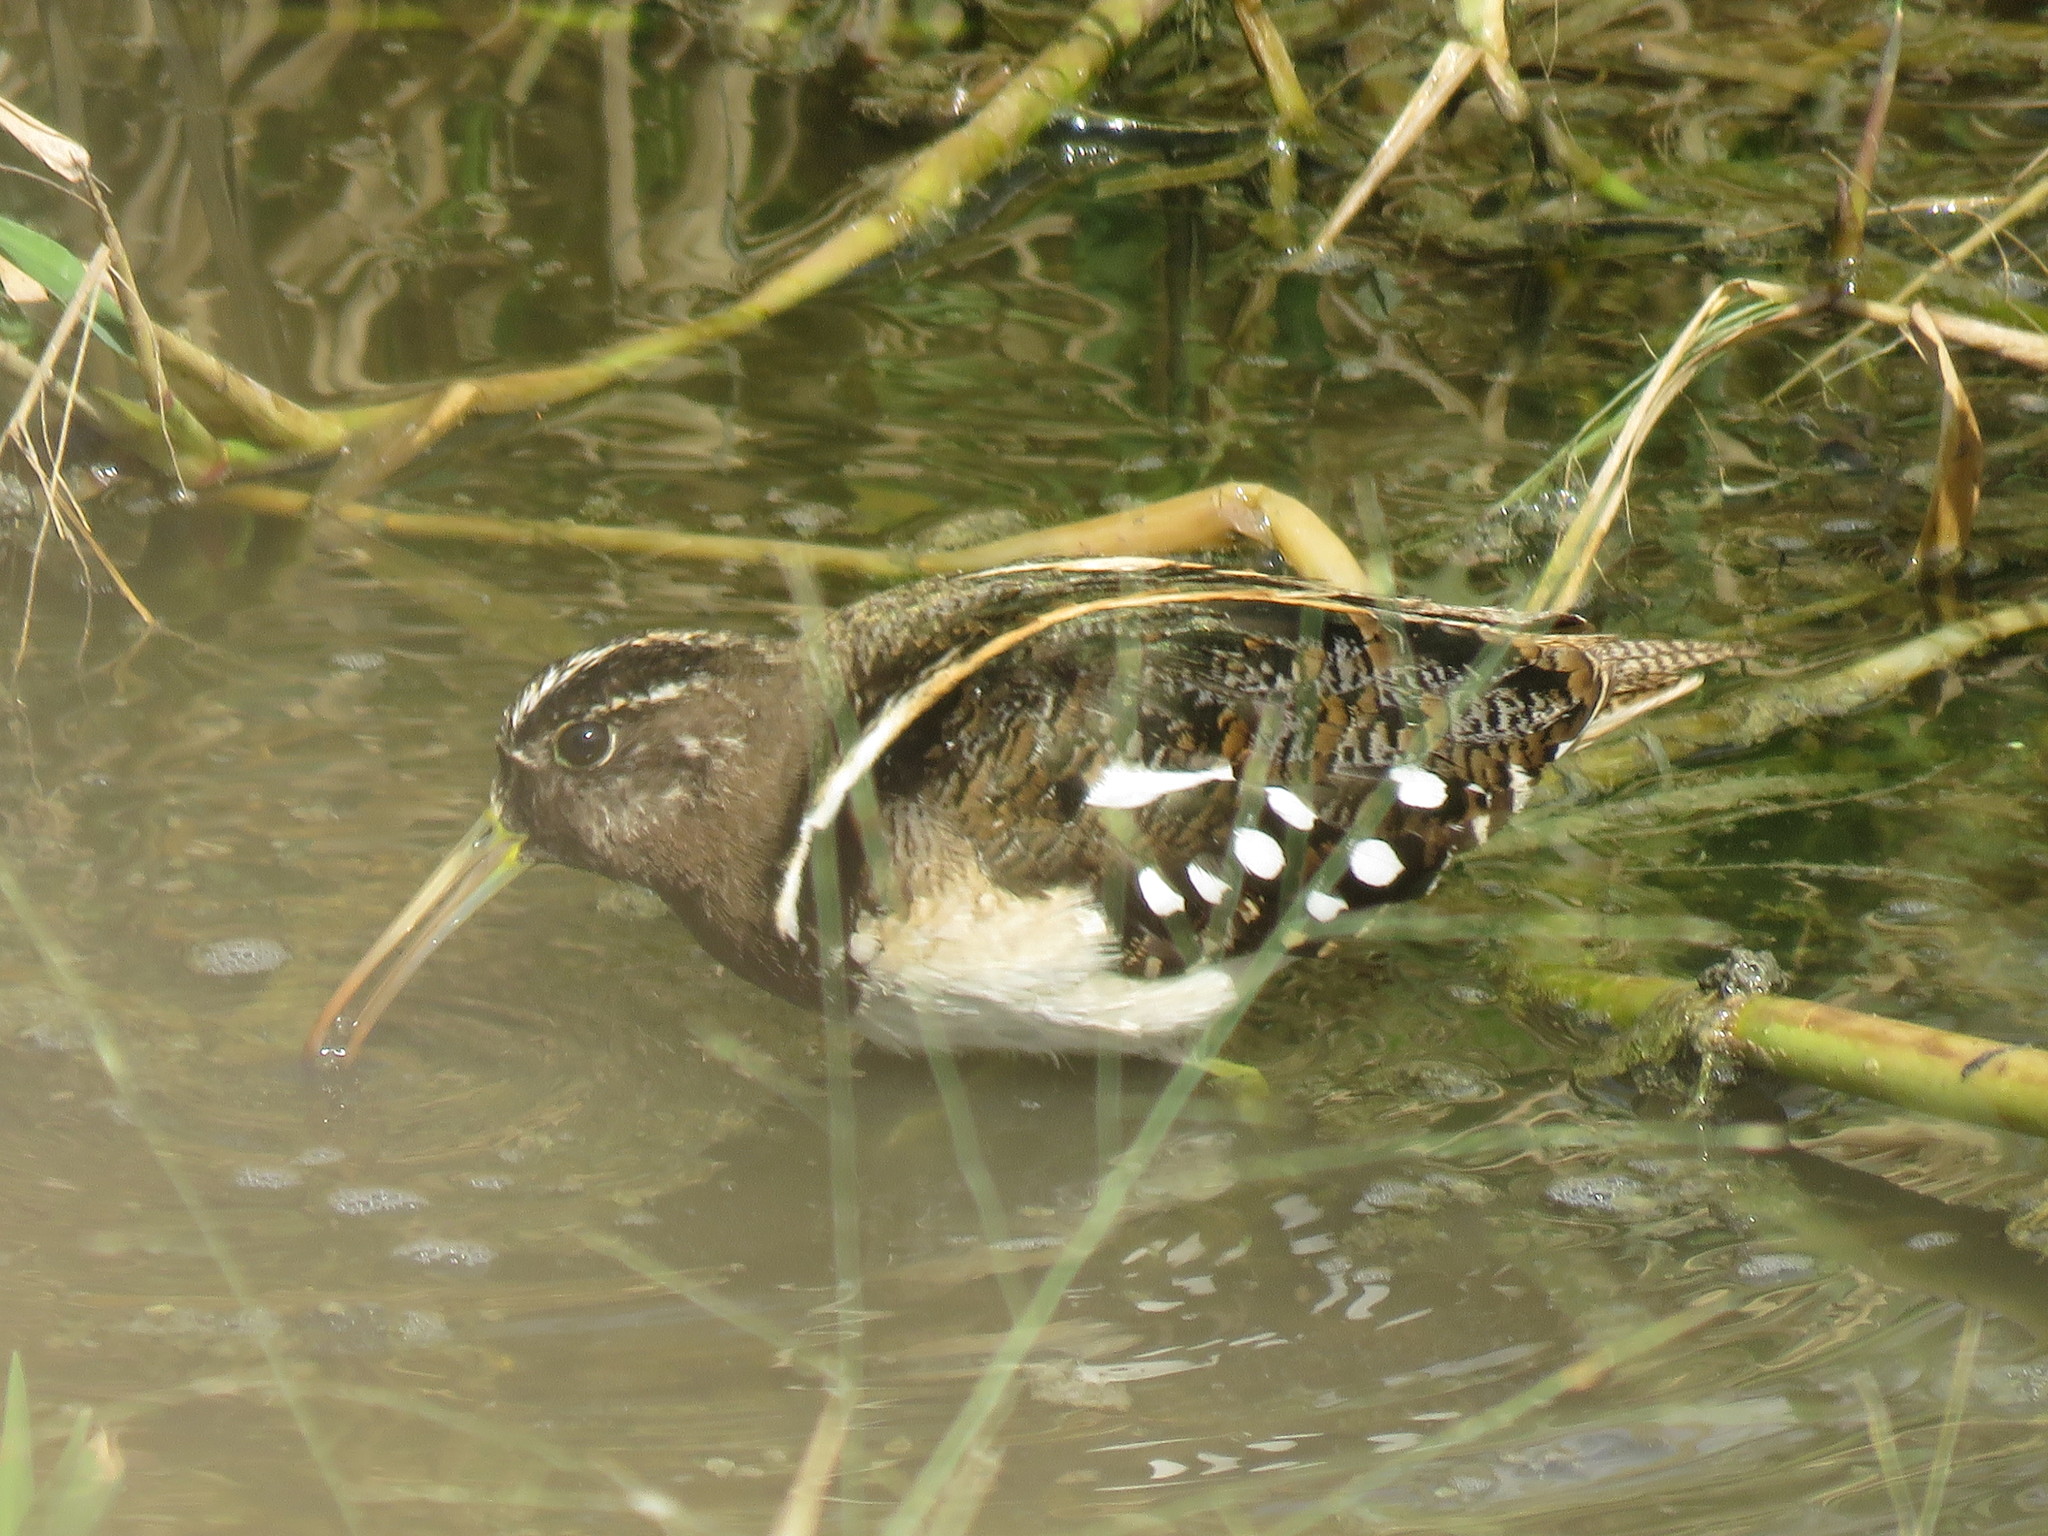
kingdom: Animalia
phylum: Chordata
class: Aves
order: Charadriiformes
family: Rostratulidae
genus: Nycticryphes
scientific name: Nycticryphes semicollaris
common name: South american painted-snipe
